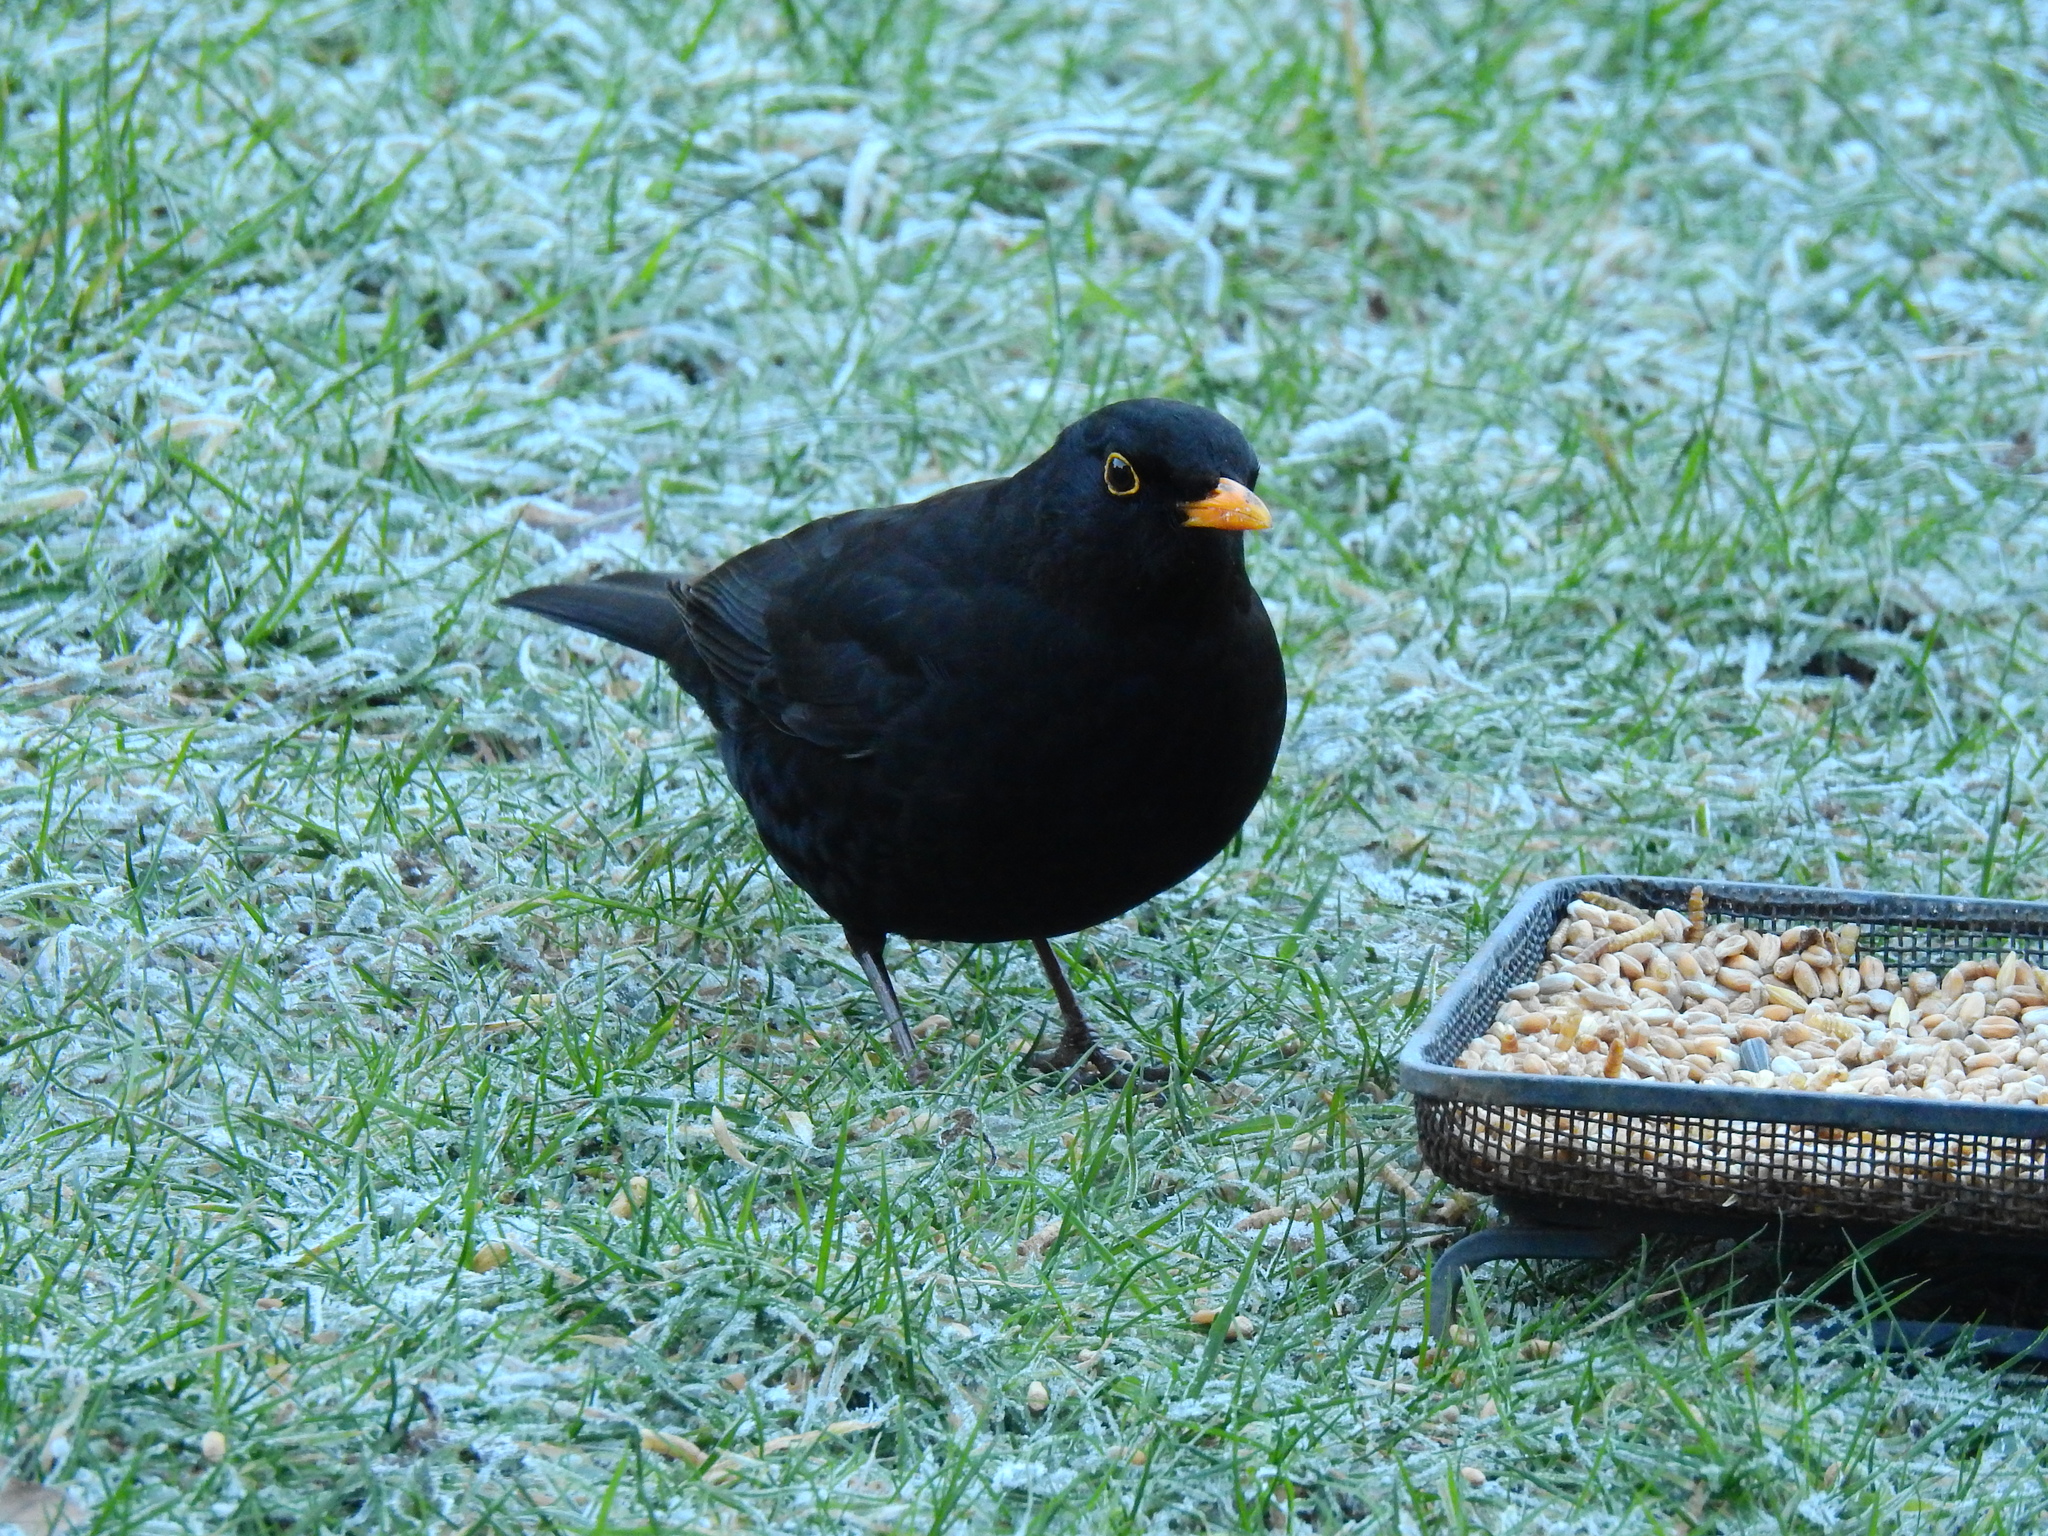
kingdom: Animalia
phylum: Chordata
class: Aves
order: Passeriformes
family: Turdidae
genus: Turdus
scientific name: Turdus merula
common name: Common blackbird
